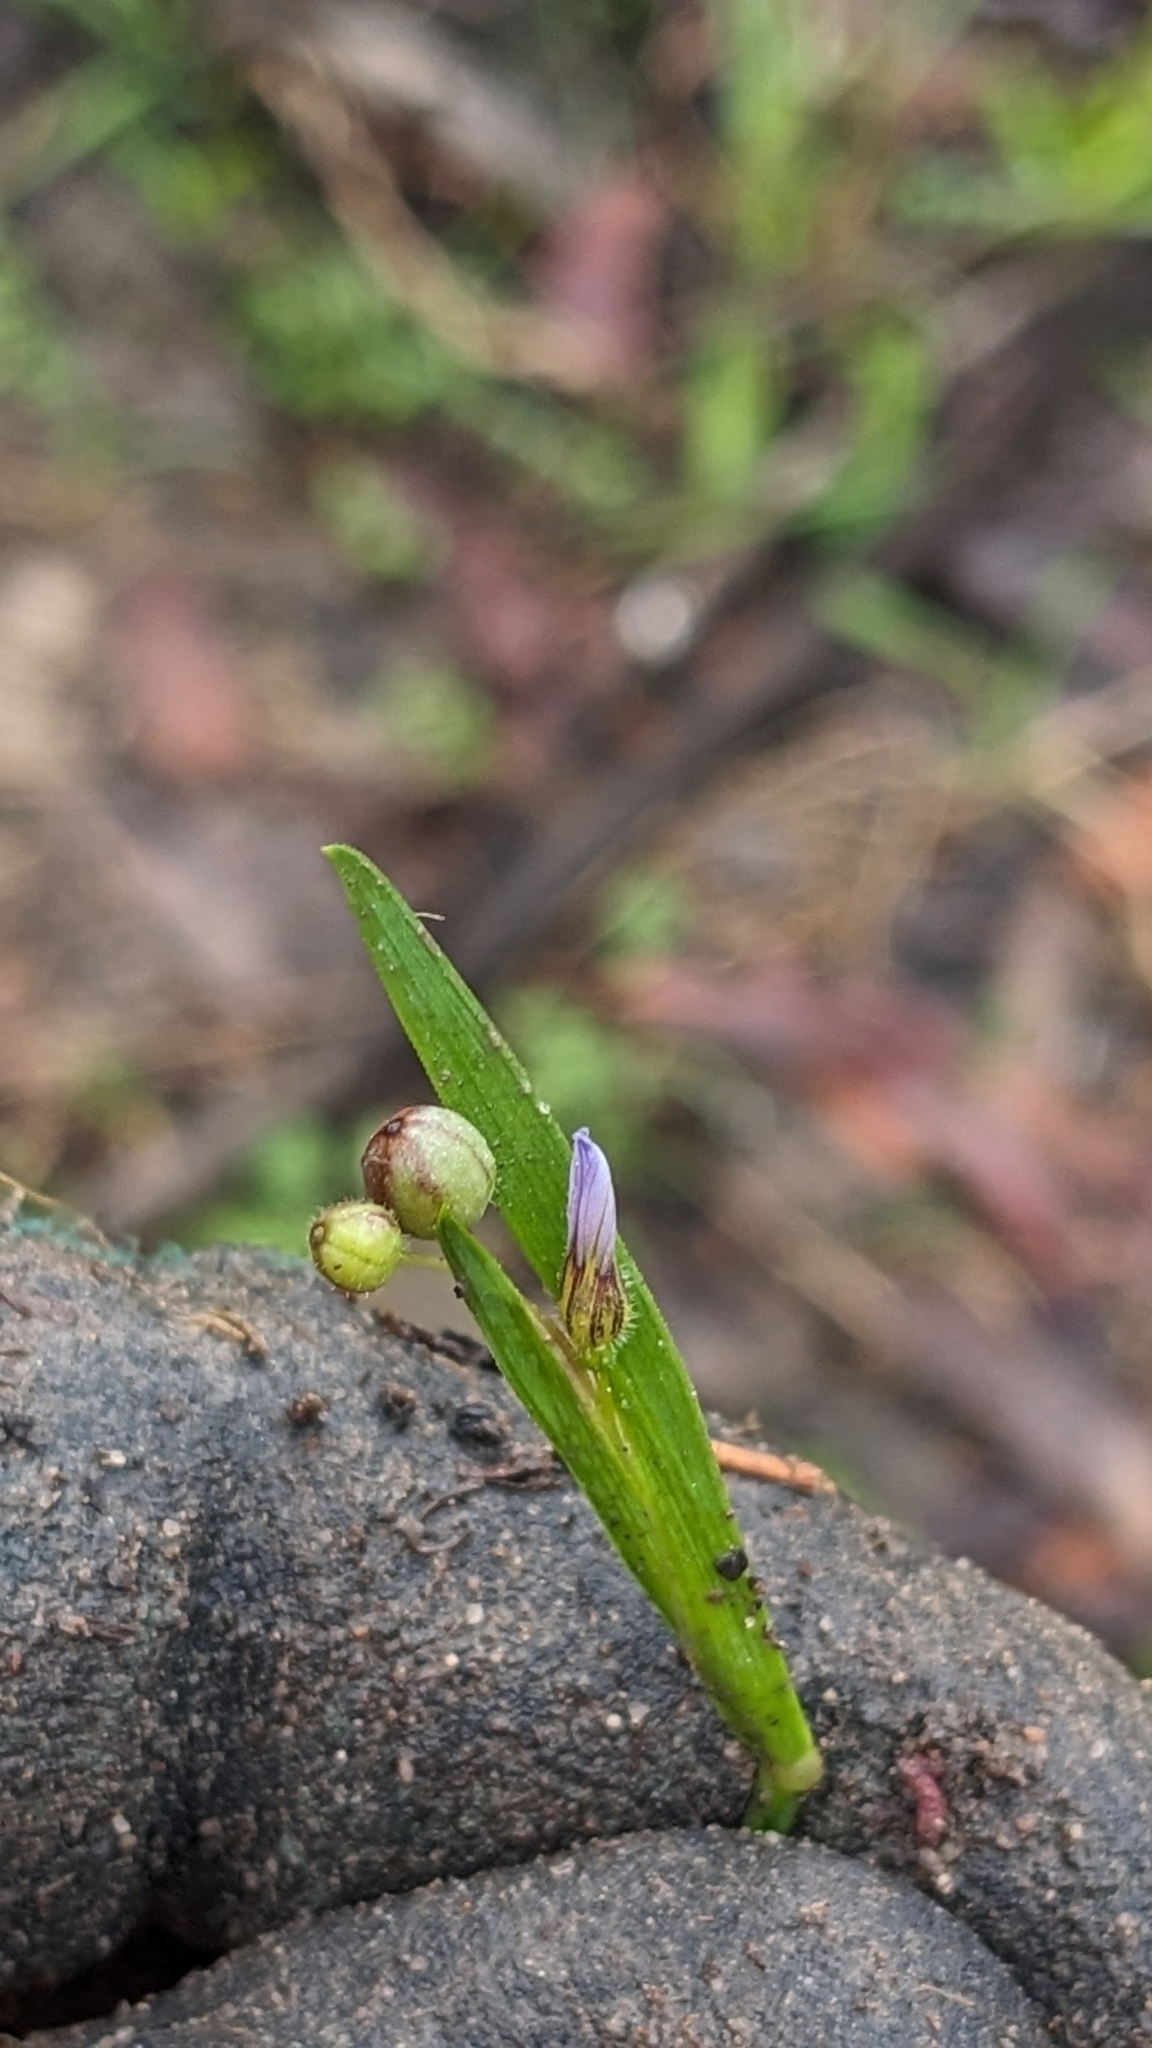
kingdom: Plantae
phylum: Tracheophyta
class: Liliopsida
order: Asparagales
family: Iridaceae
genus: Sisyrinchium
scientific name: Sisyrinchium micranthum
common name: Bermuda pigroot
